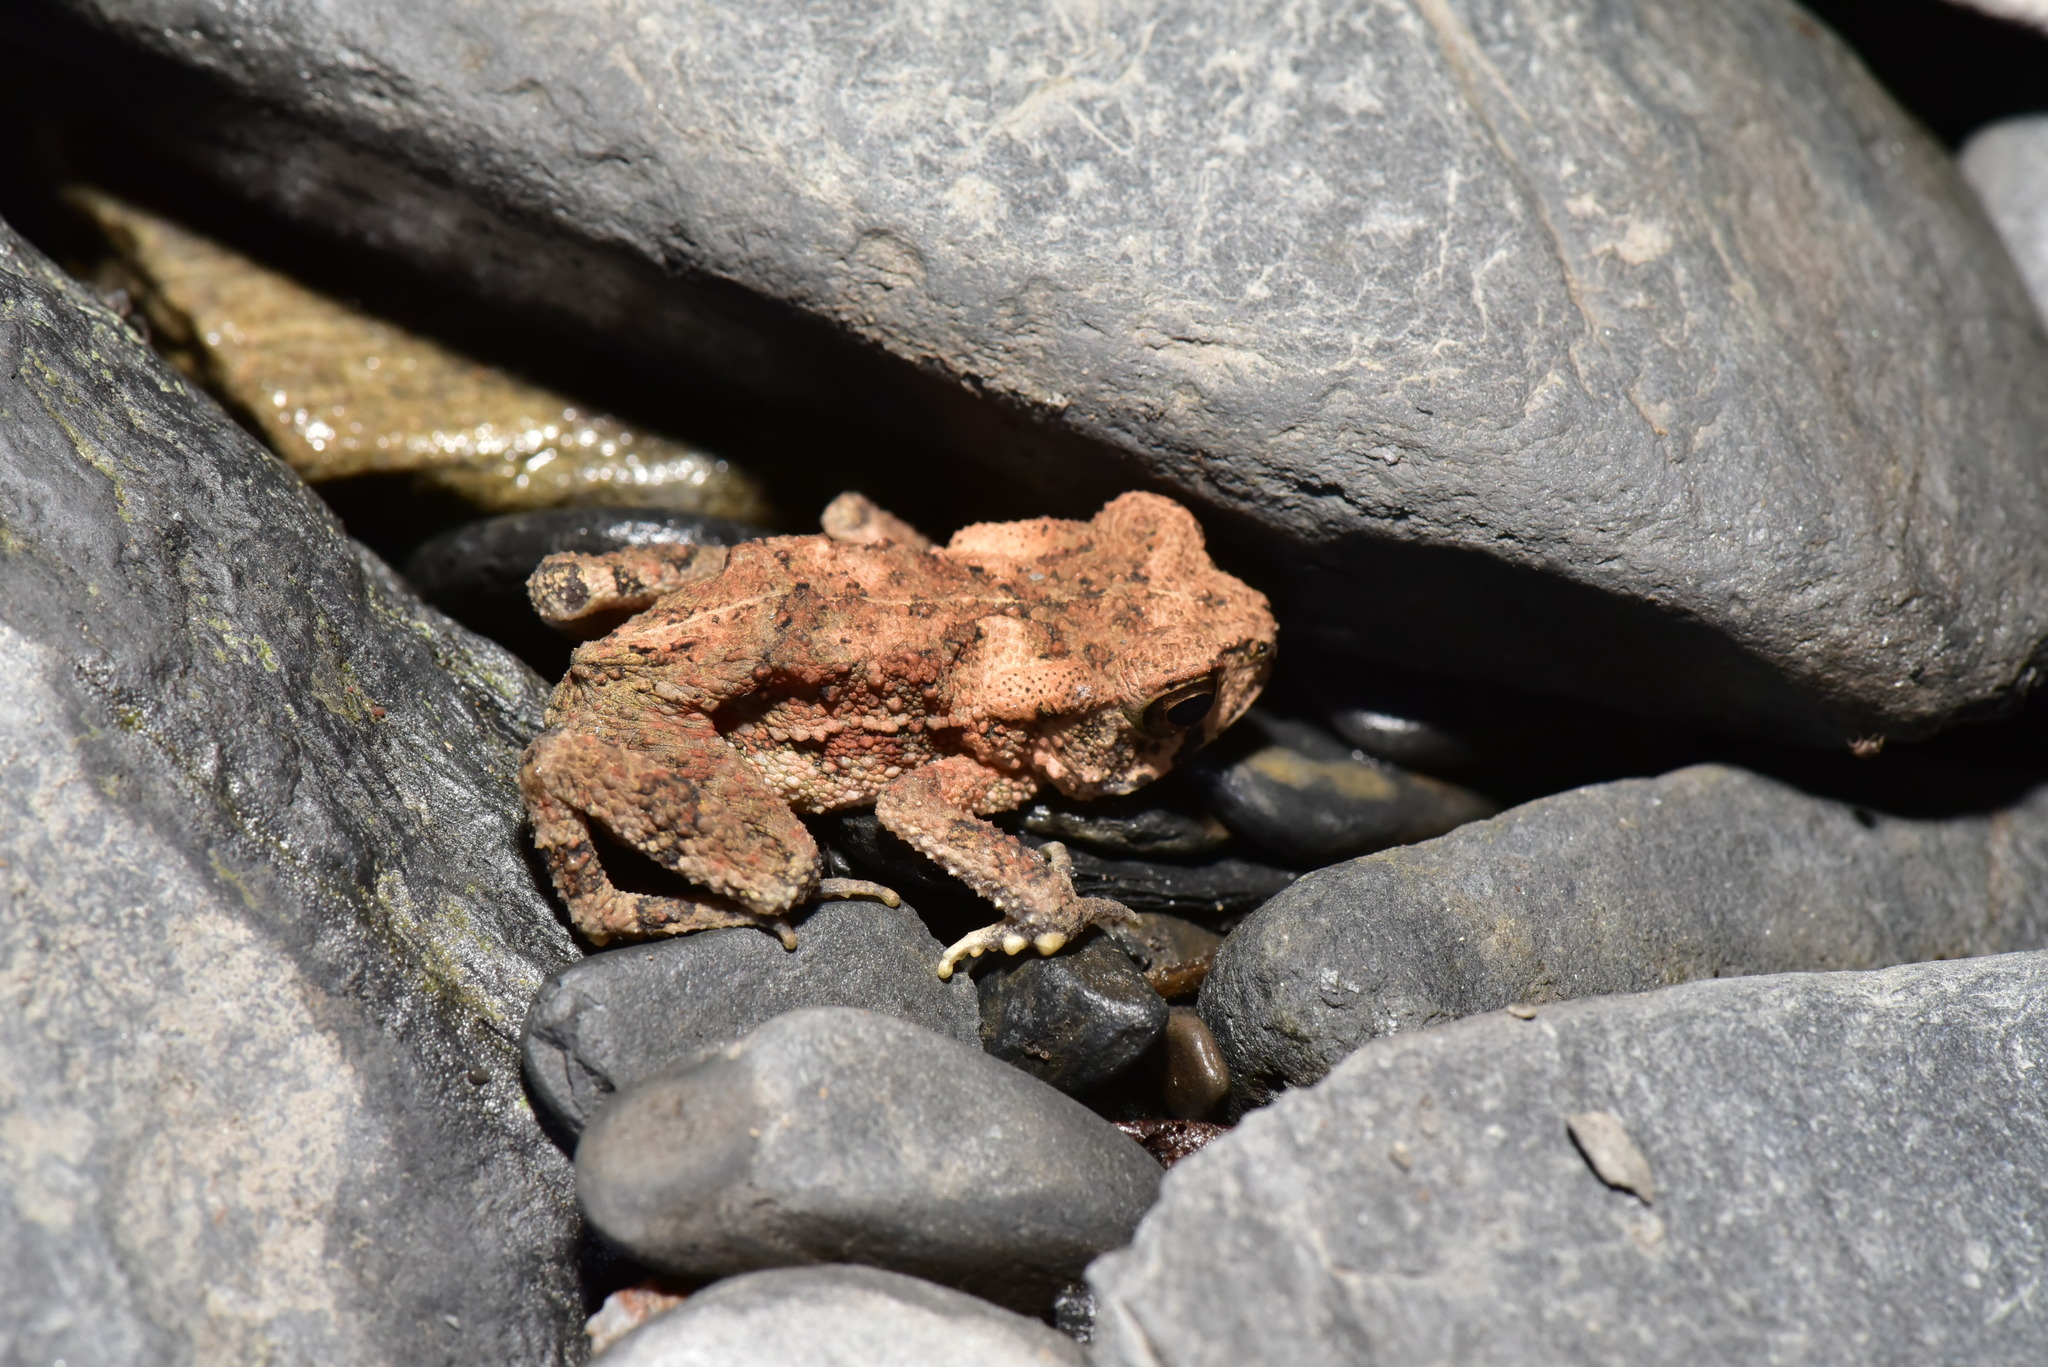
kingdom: Animalia
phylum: Chordata
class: Amphibia
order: Anura
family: Bufonidae
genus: Bufo
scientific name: Bufo bankorensis
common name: Bankor toad
